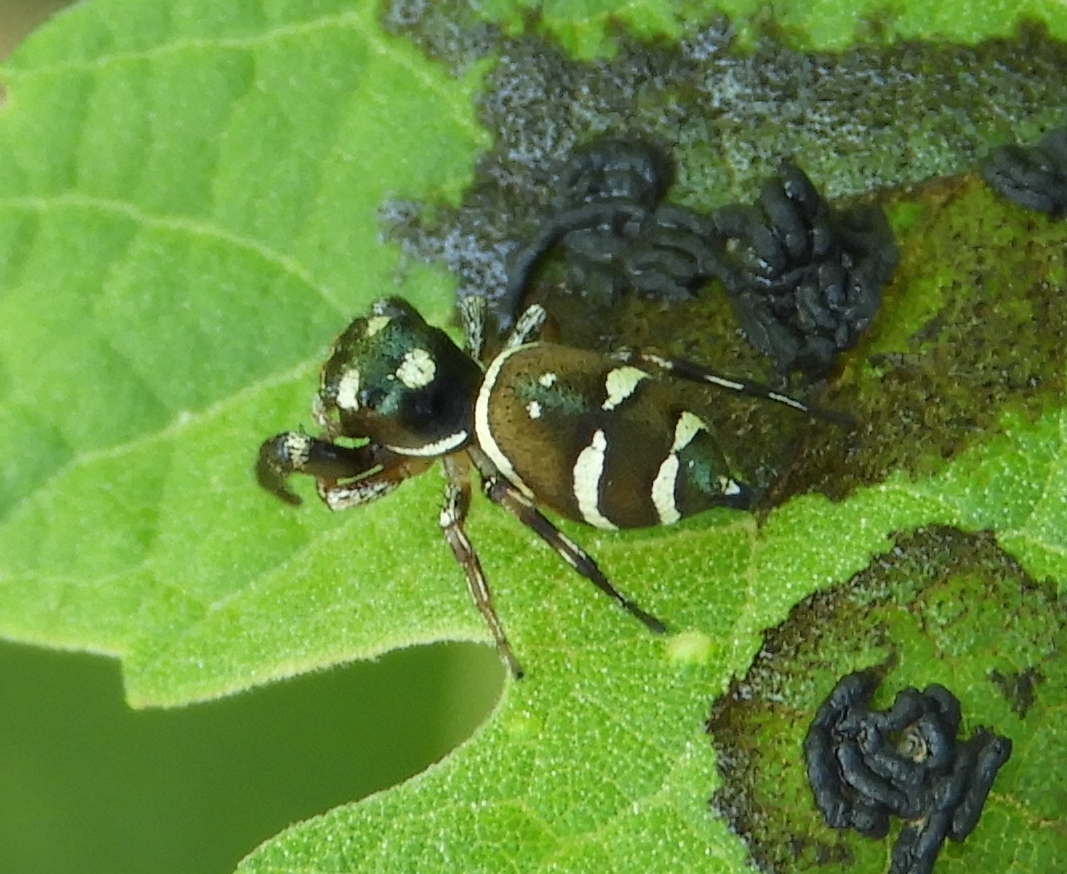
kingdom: Animalia
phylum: Arthropoda
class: Arachnida
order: Araneae
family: Salticidae
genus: Sassacus
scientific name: Sassacus
